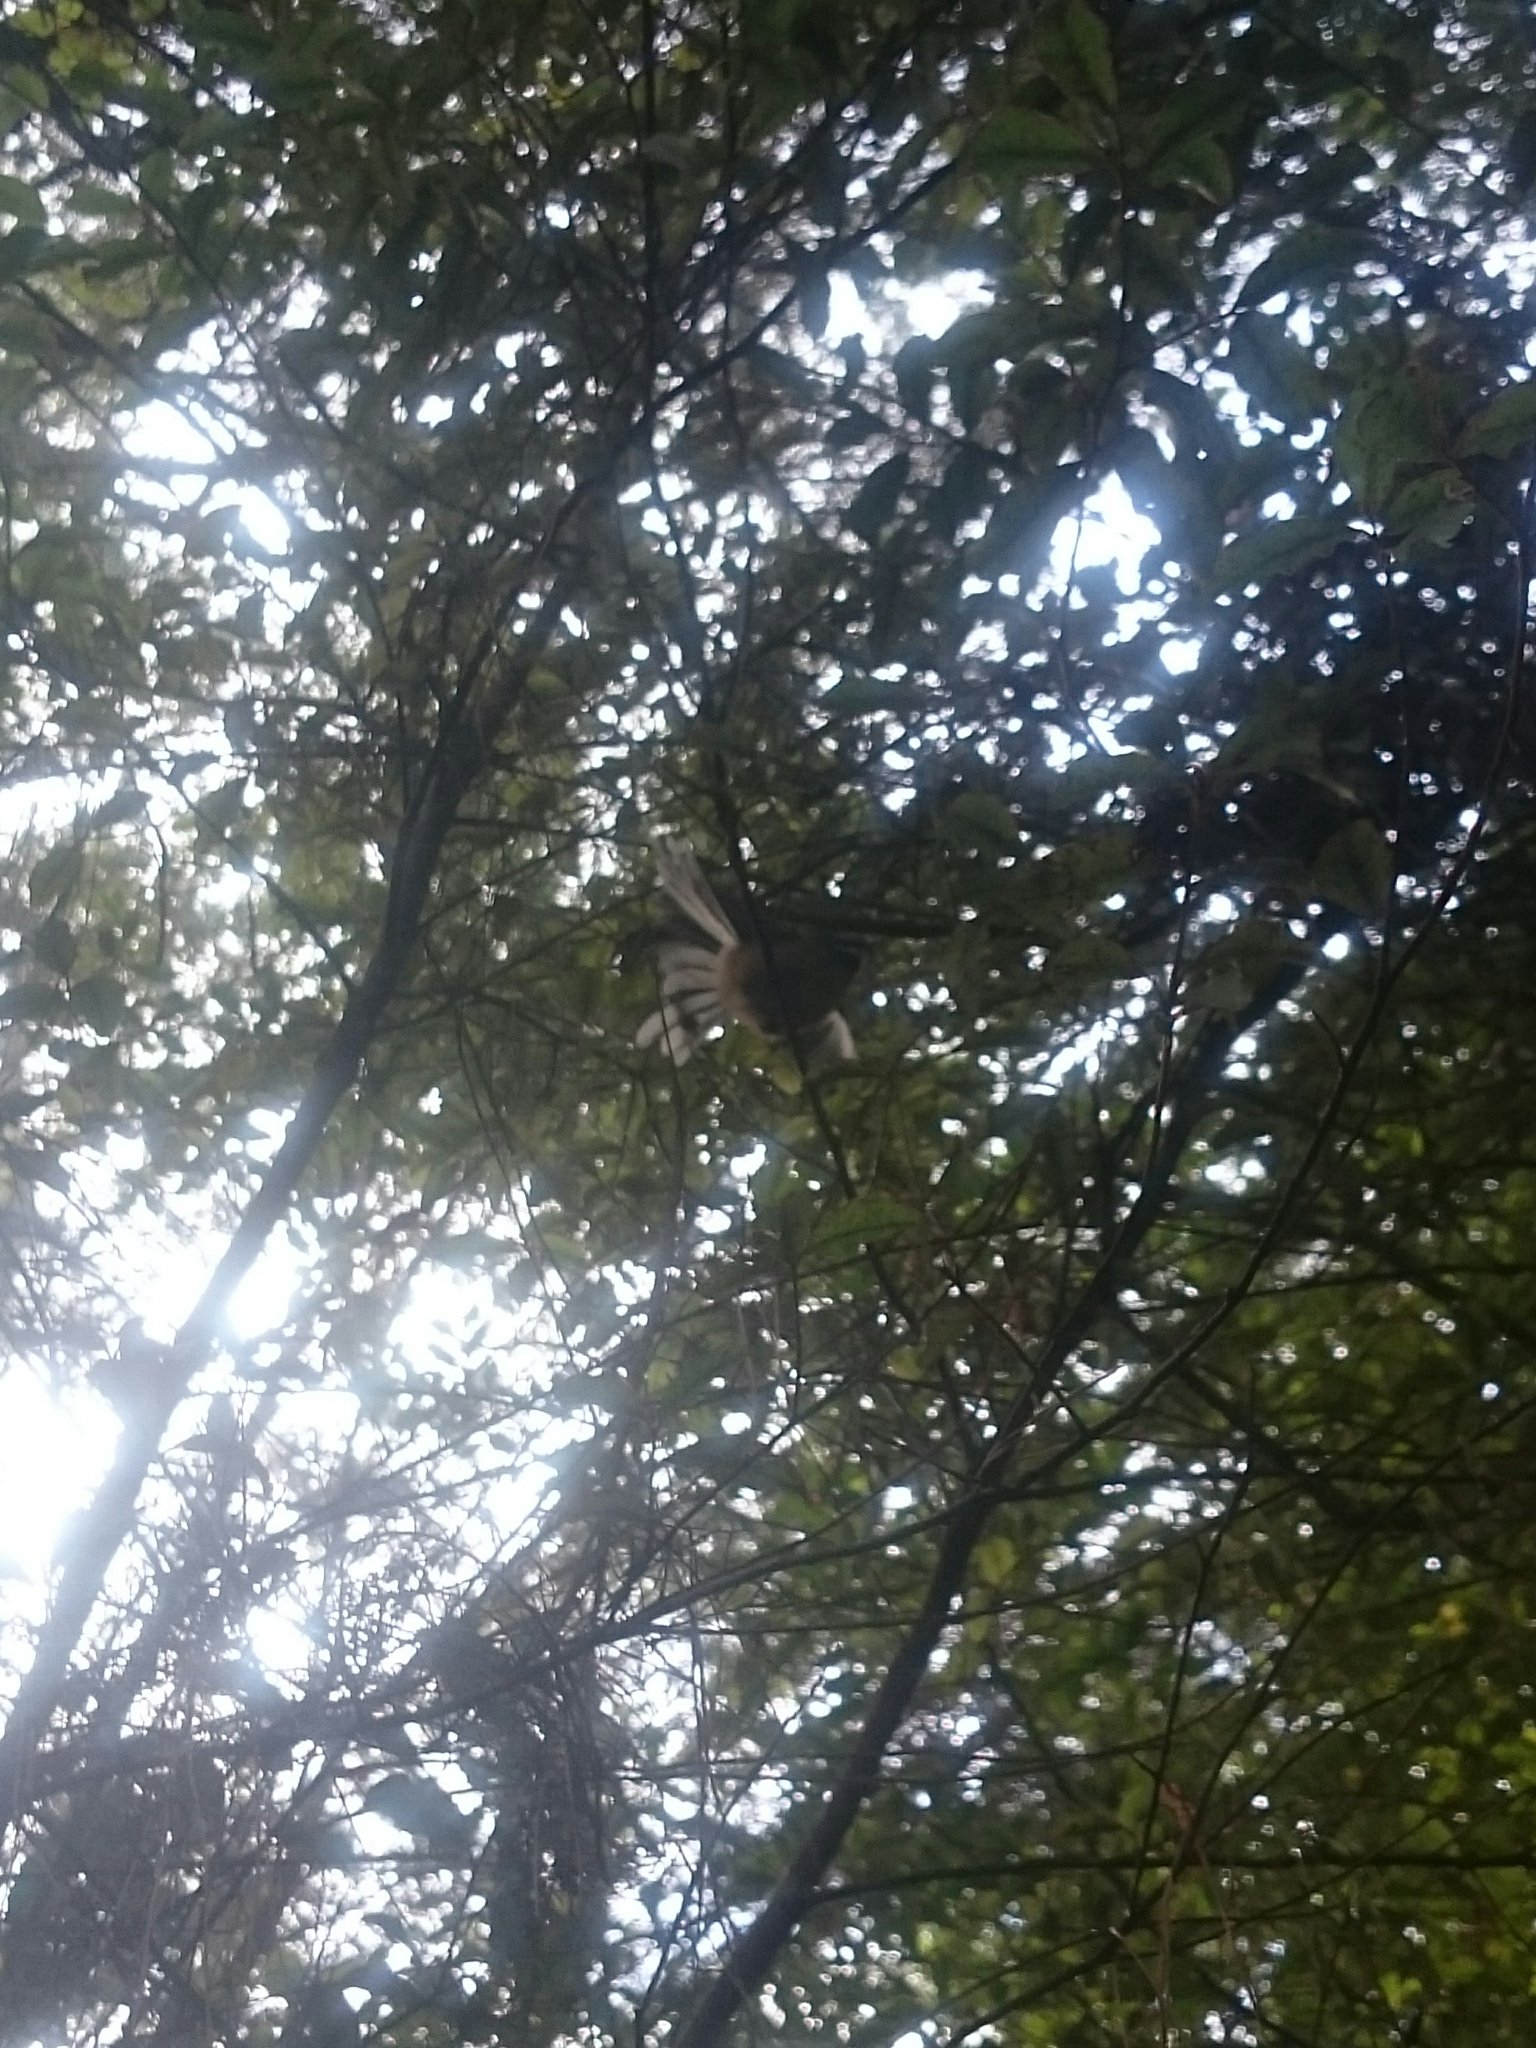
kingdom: Animalia
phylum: Chordata
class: Aves
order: Passeriformes
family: Rhipiduridae
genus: Rhipidura
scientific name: Rhipidura fuliginosa
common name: New zealand fantail
